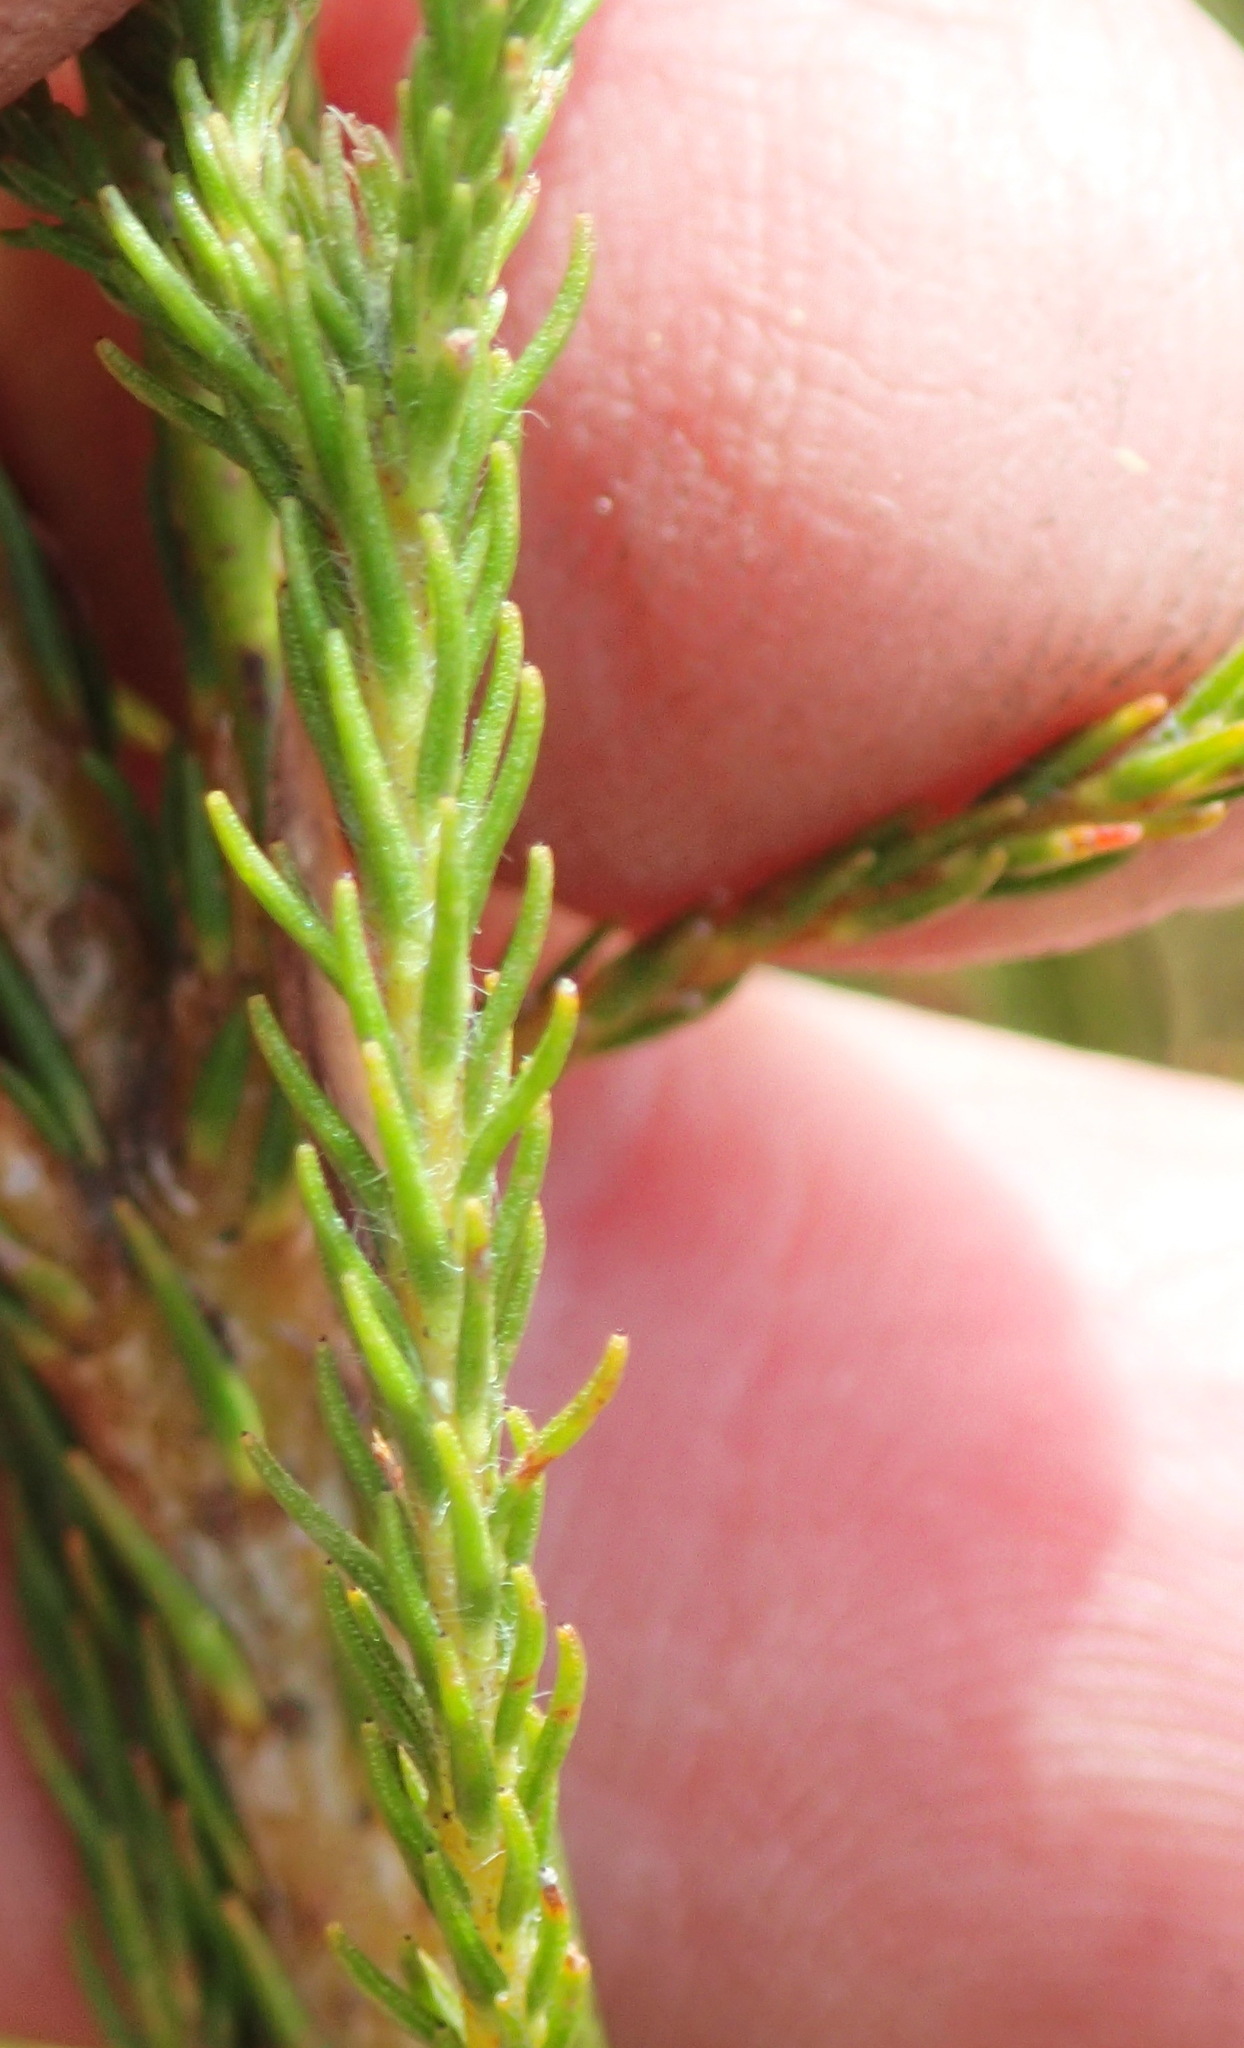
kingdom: Plantae
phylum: Tracheophyta
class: Magnoliopsida
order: Bruniales
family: Bruniaceae
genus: Berzelia
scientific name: Berzelia intermedia
